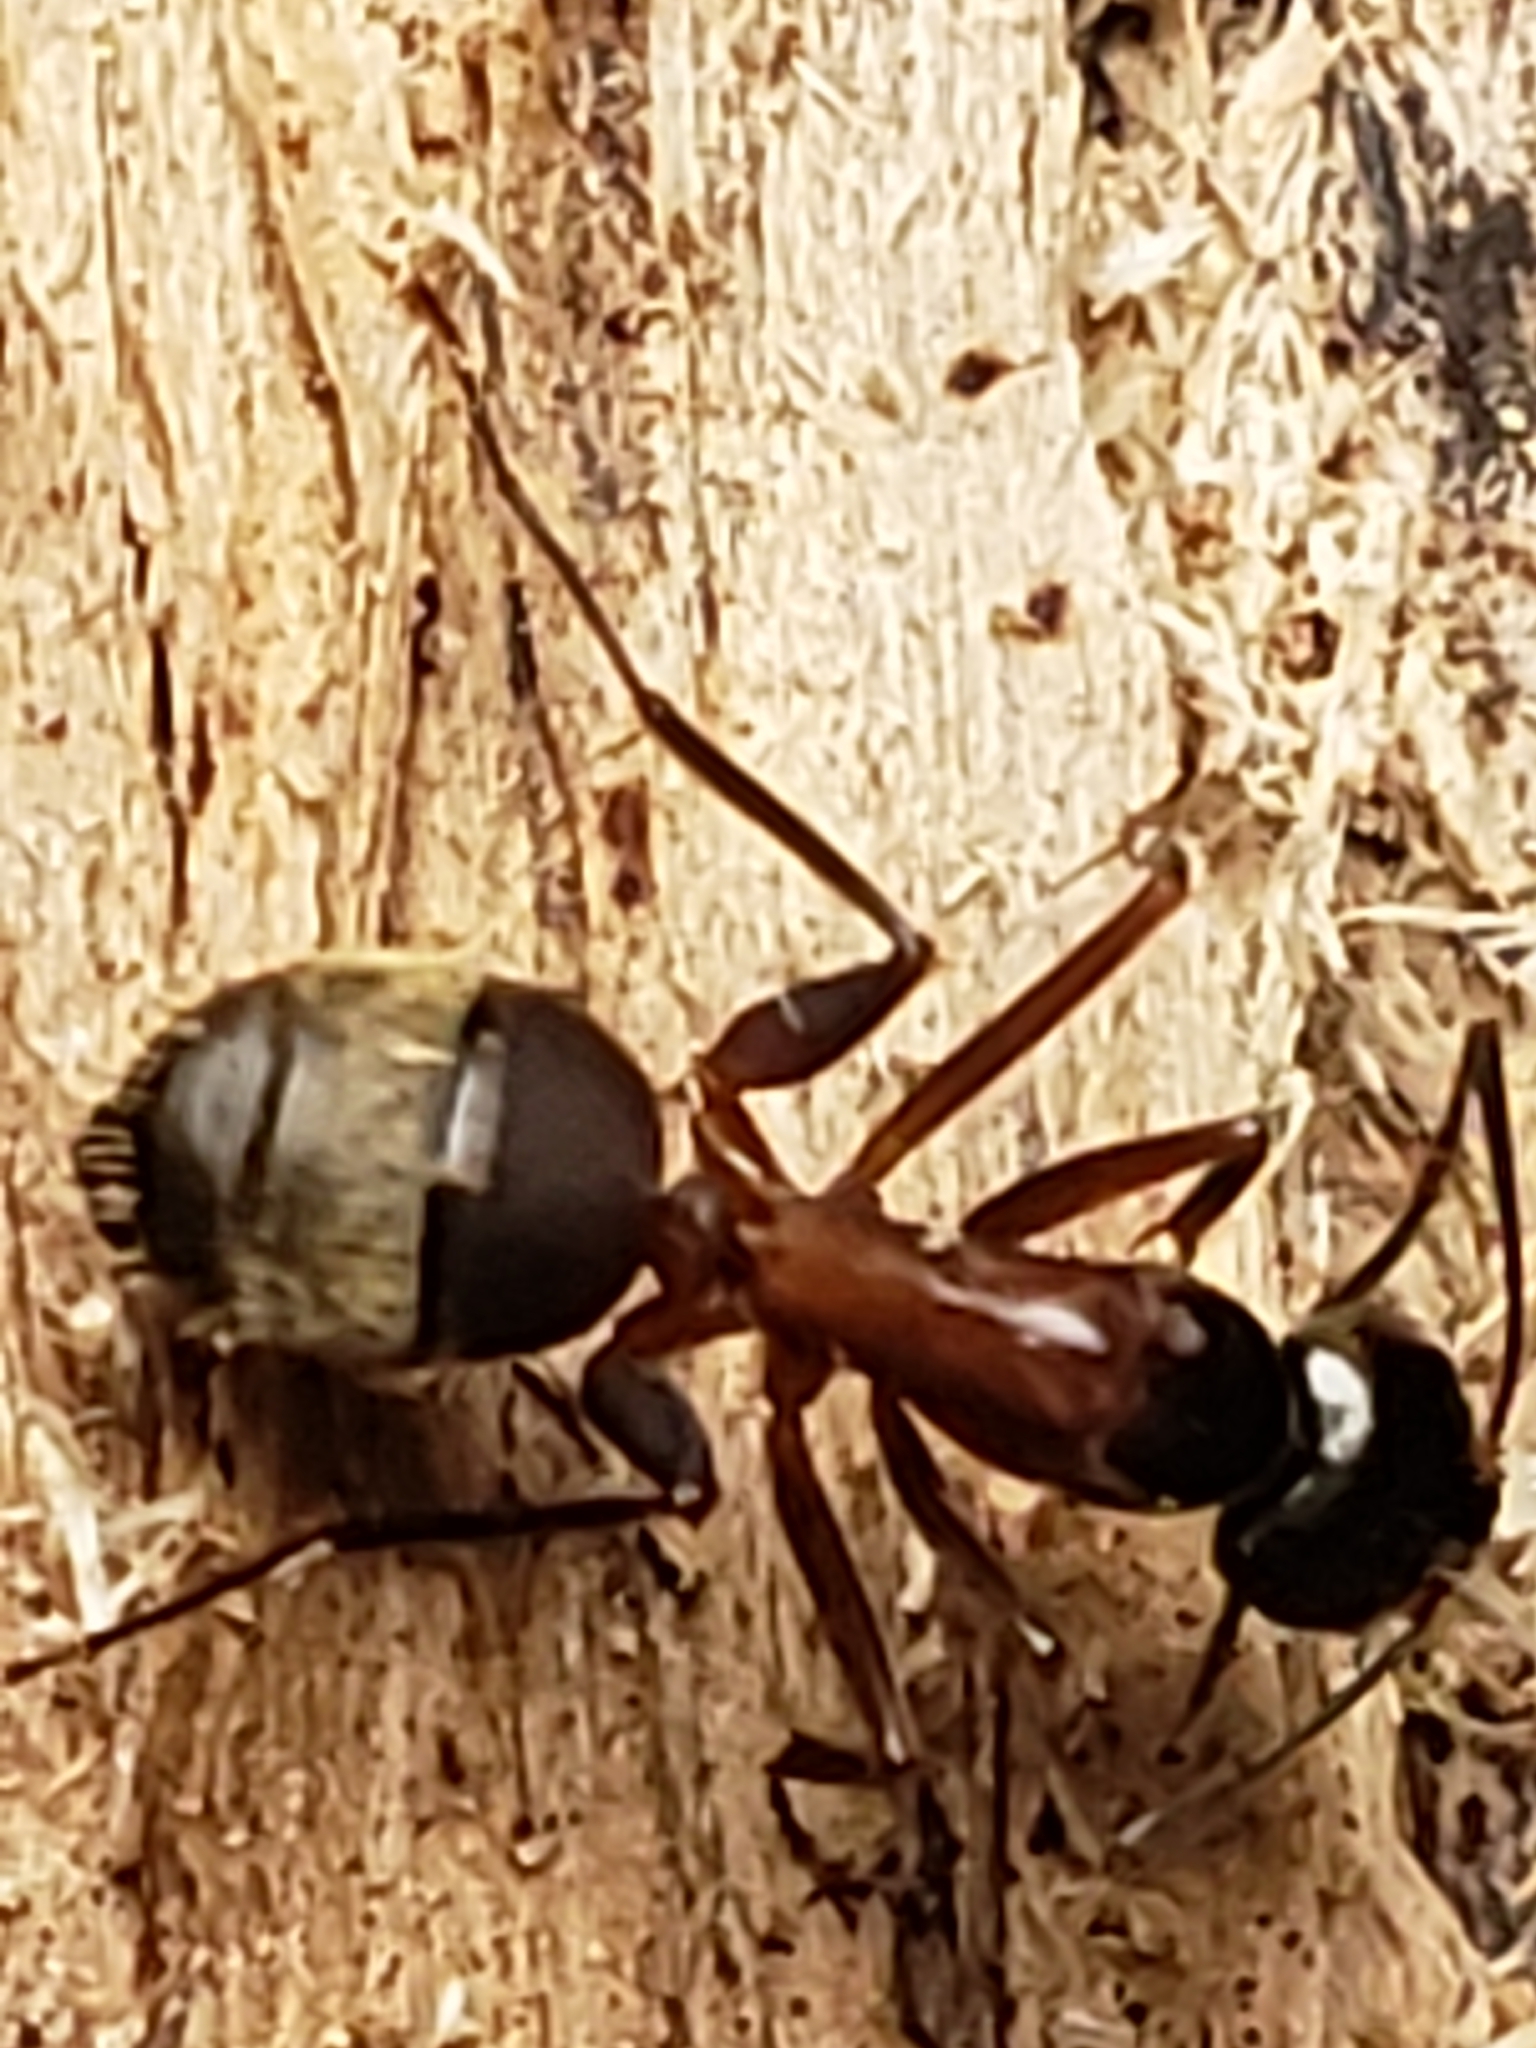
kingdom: Animalia
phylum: Arthropoda
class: Insecta
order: Hymenoptera
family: Formicidae
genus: Camponotus
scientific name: Camponotus chromaiodes
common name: Red carpenter ant
